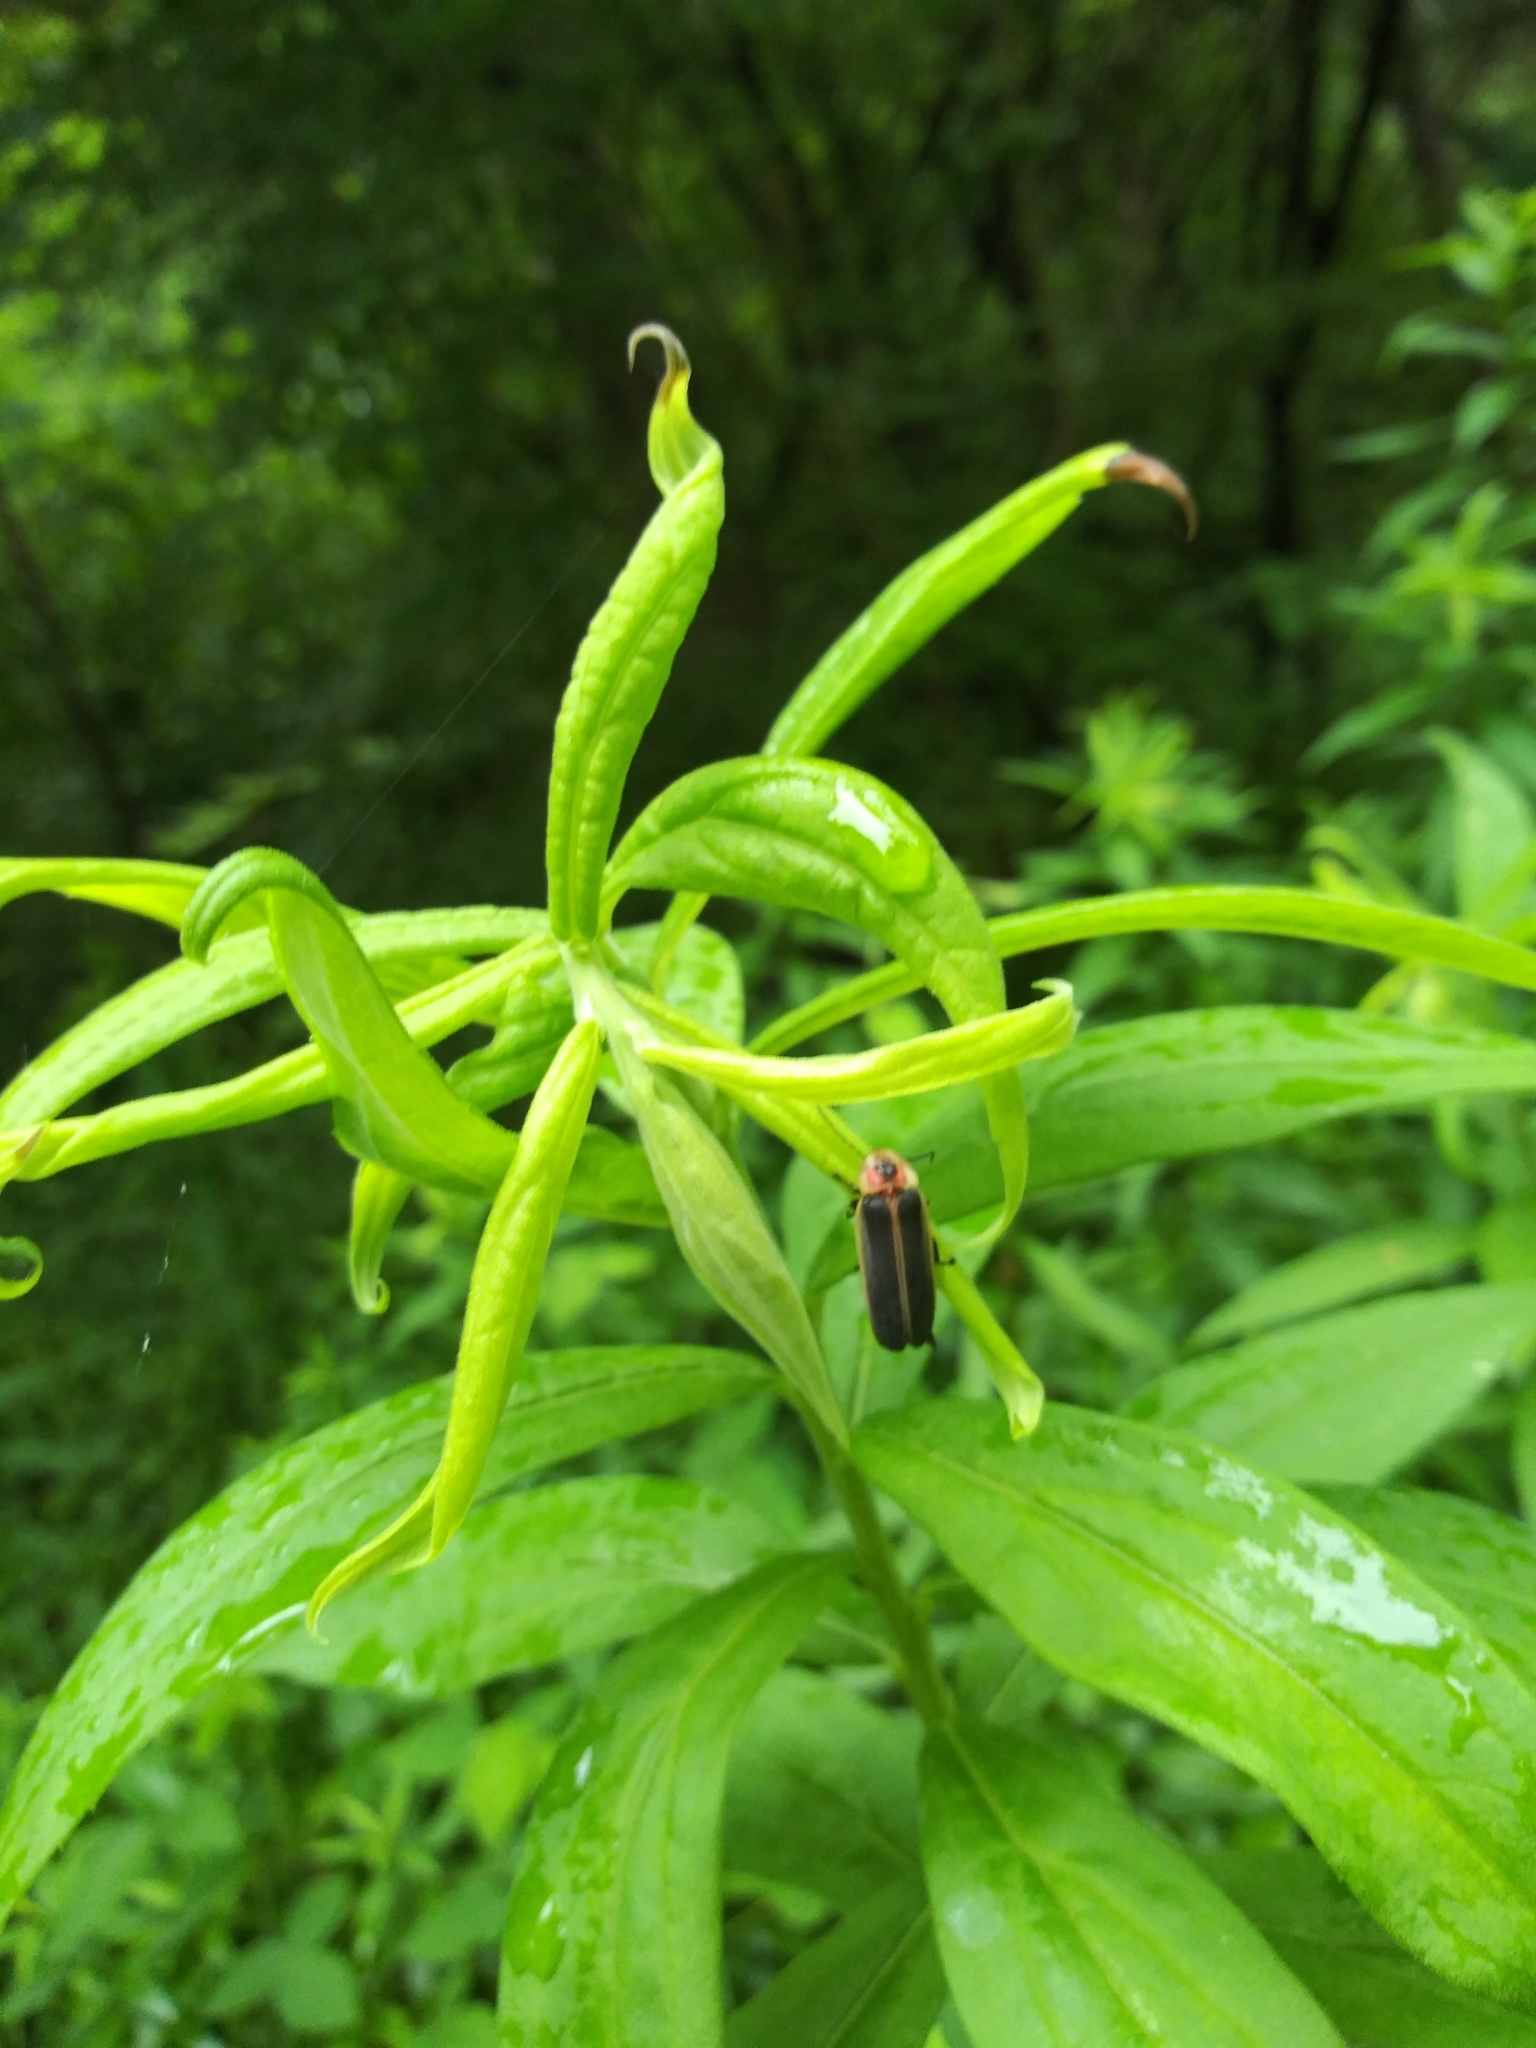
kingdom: Animalia
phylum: Arthropoda
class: Insecta
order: Coleoptera
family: Lampyridae
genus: Photinus
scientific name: Photinus pyralis
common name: Big dipper firefly
